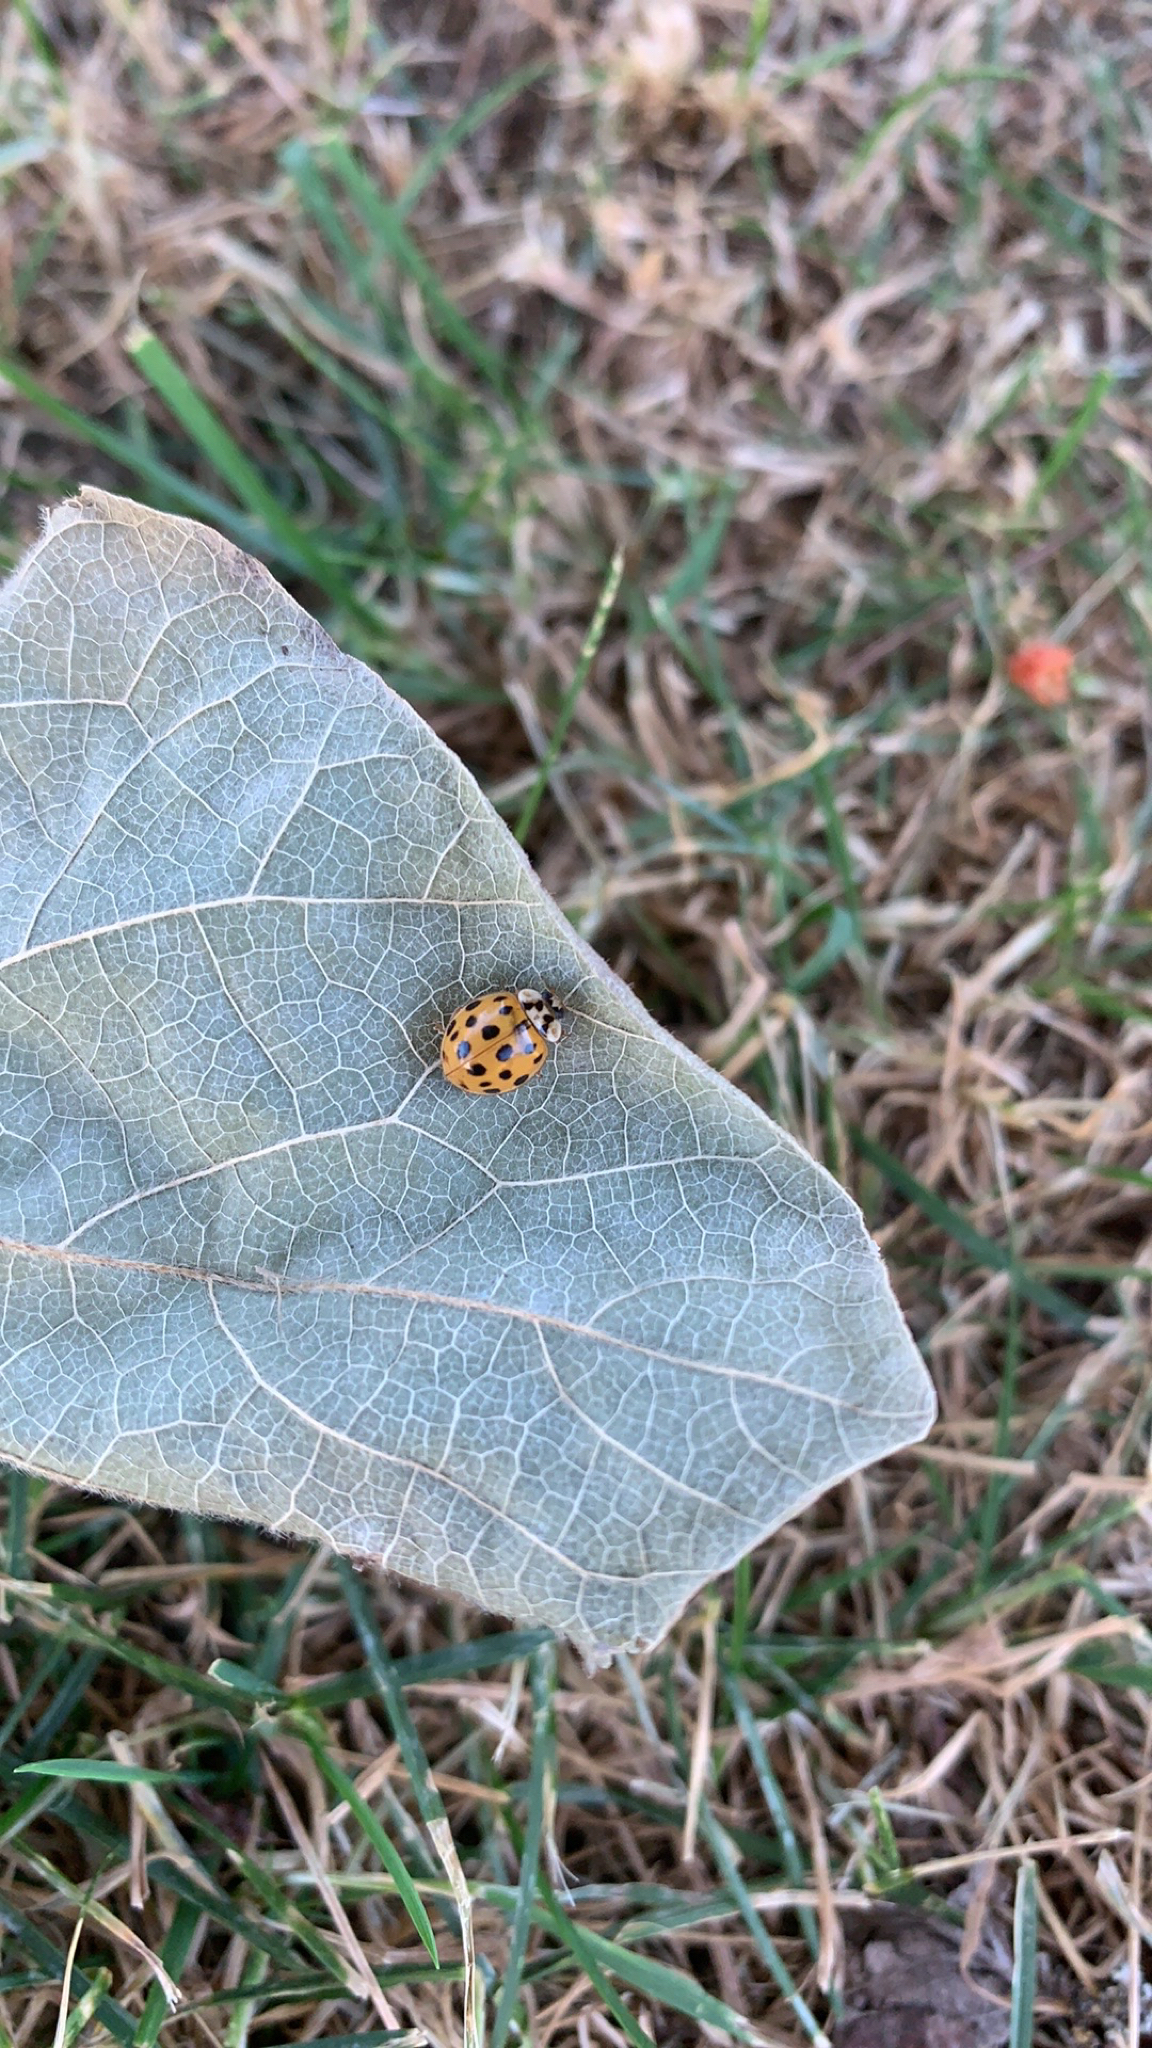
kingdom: Animalia
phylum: Arthropoda
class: Insecta
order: Coleoptera
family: Coccinellidae
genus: Harmonia
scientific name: Harmonia axyridis
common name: Harlequin ladybird
